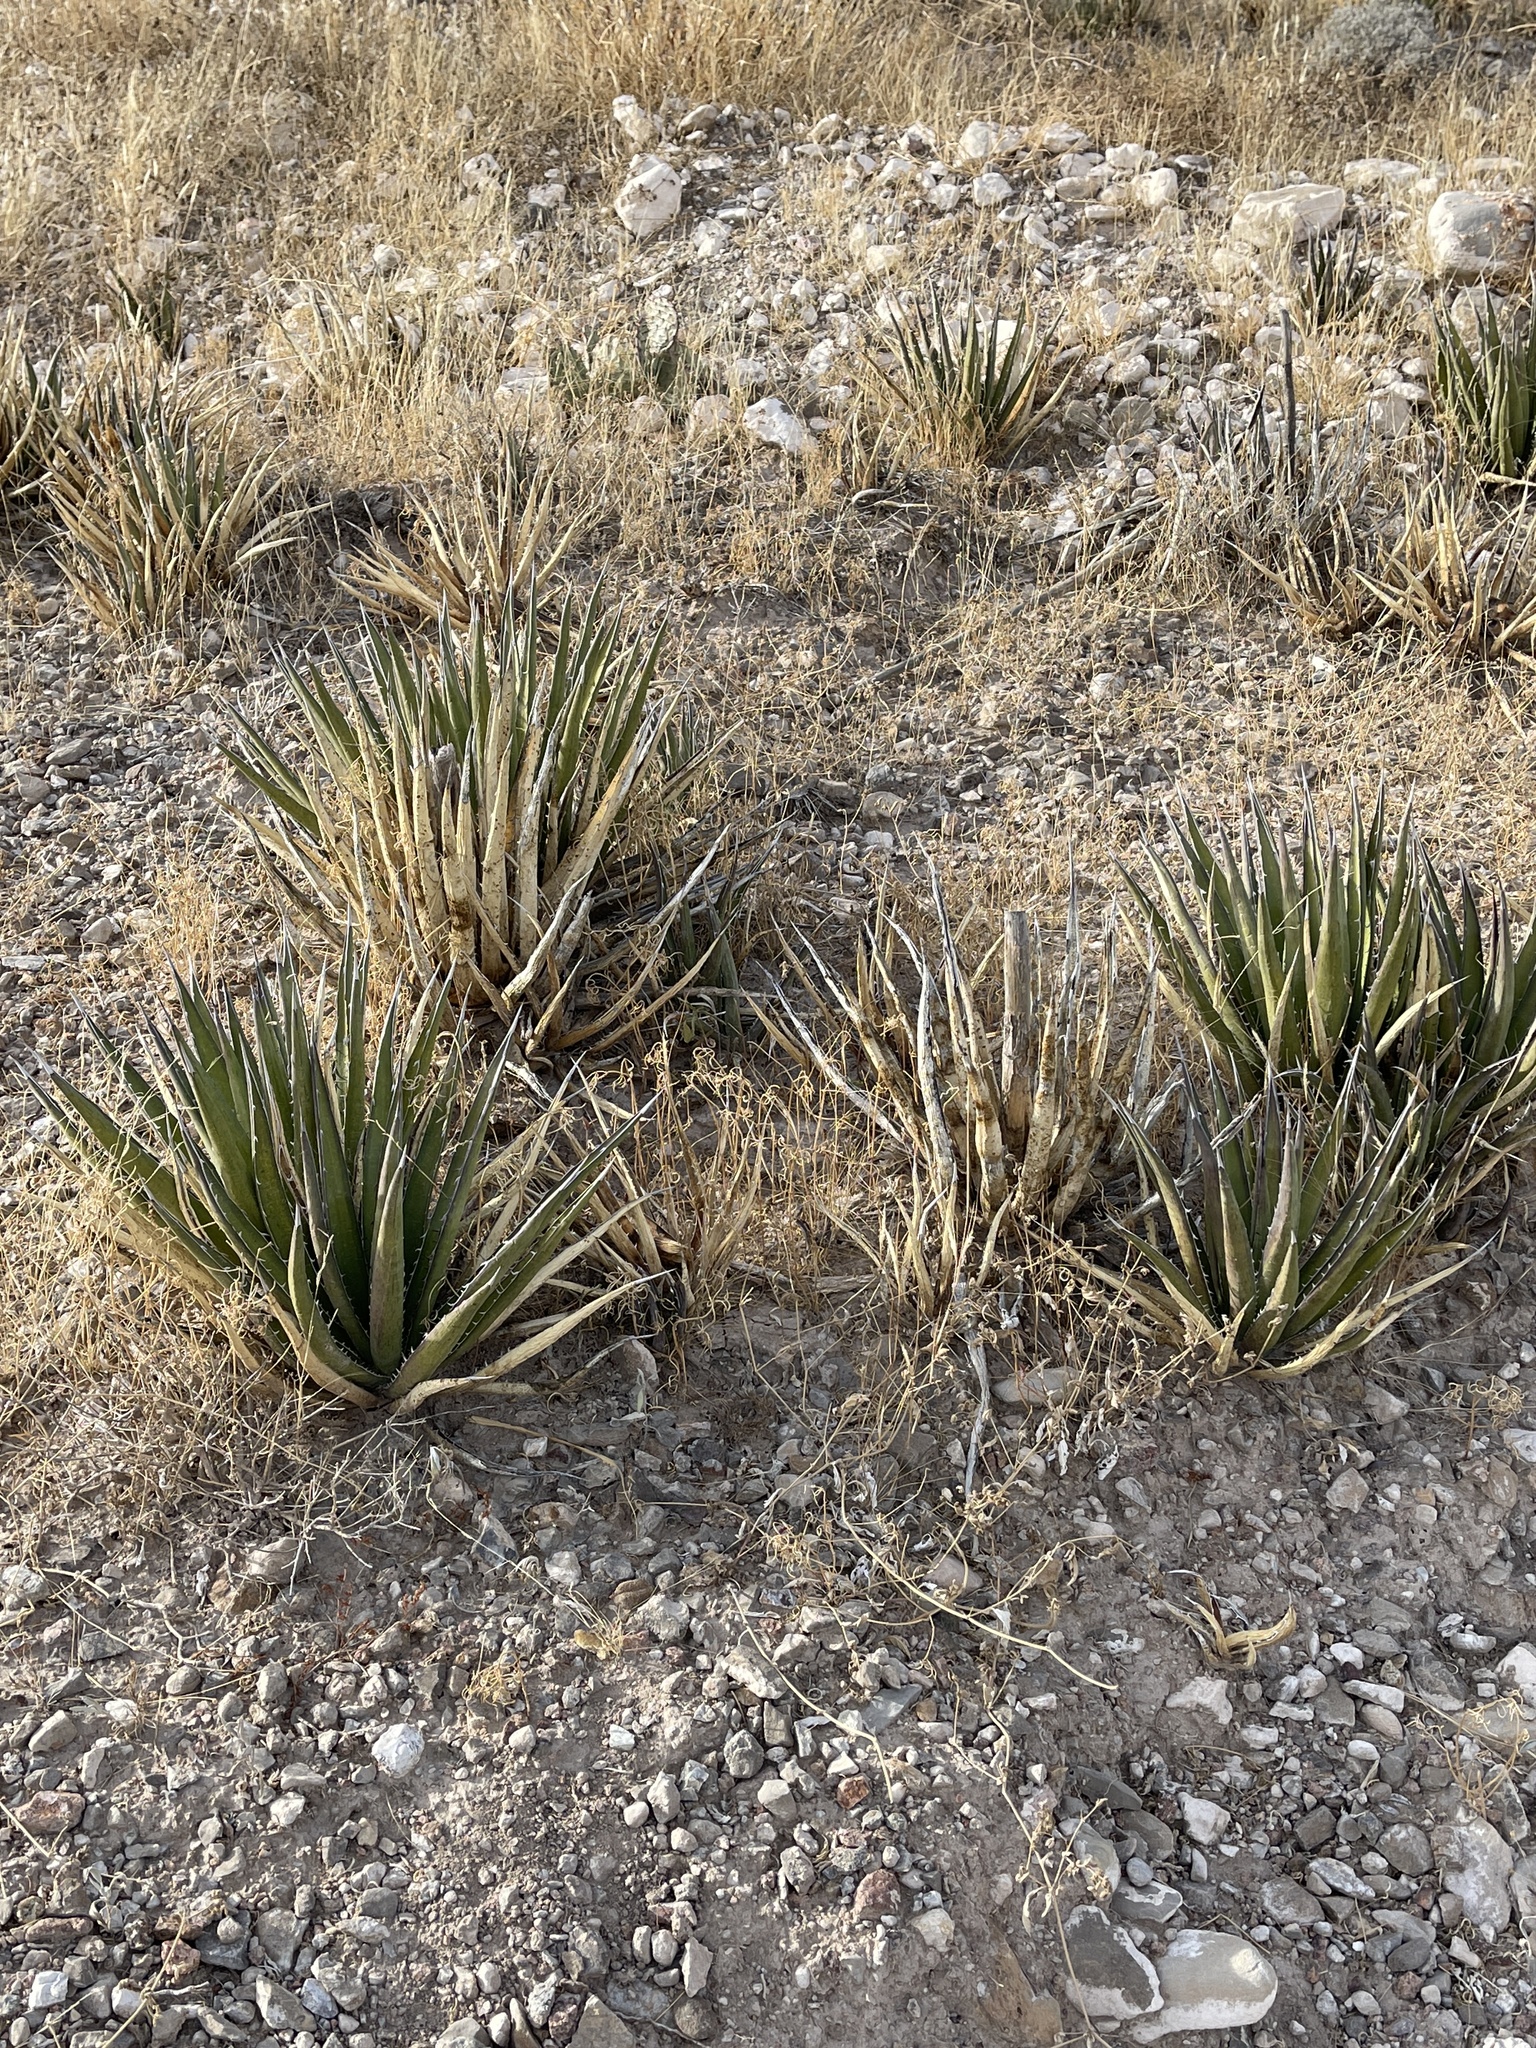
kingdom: Plantae
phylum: Tracheophyta
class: Liliopsida
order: Asparagales
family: Asparagaceae
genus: Agave
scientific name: Agave lechuguilla
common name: Lecheguilla agave
